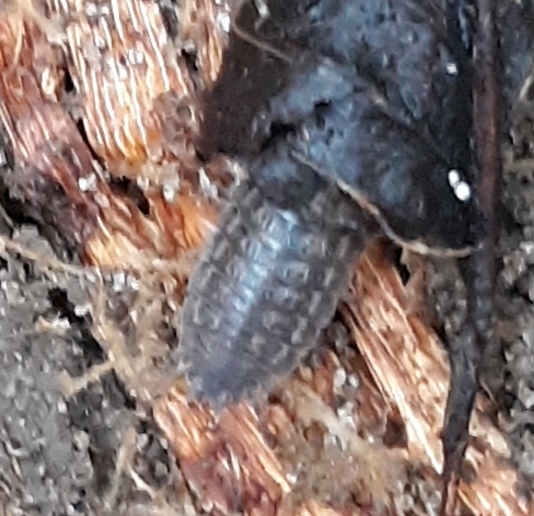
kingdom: Animalia
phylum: Arthropoda
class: Malacostraca
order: Isopoda
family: Trachelipodidae
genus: Trachelipus
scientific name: Trachelipus rathkii
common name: Isopod
